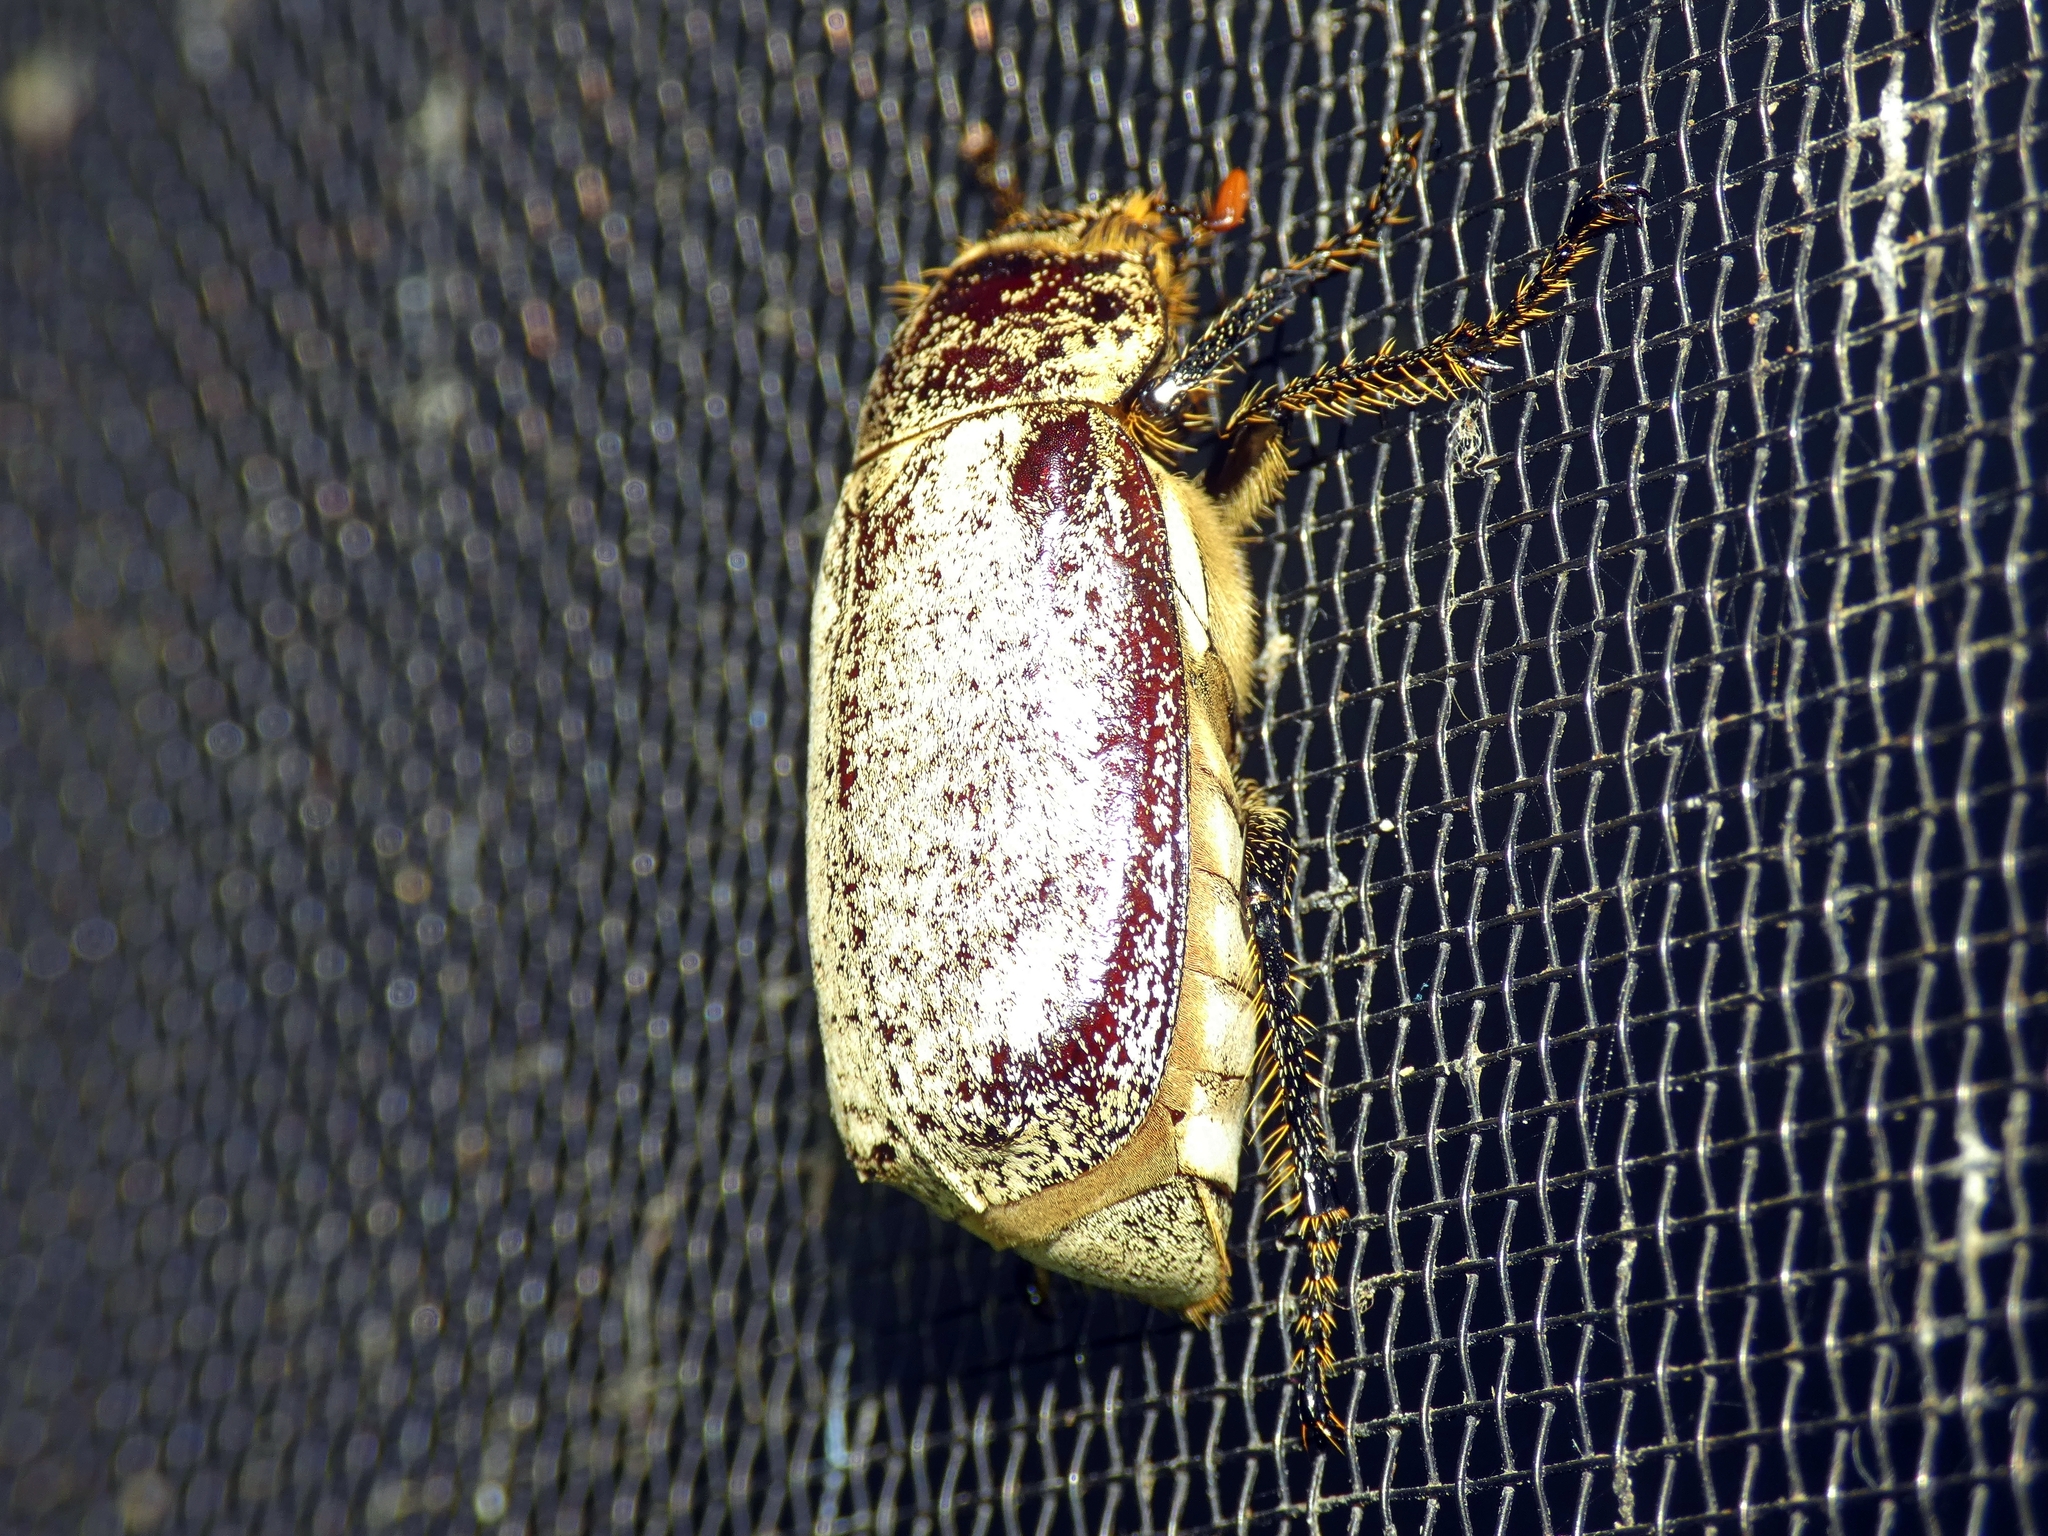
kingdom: Animalia
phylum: Arthropoda
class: Insecta
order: Coleoptera
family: Scarabaeidae
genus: Dermolepida
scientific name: Dermolepida albohirtum
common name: Greyback cane beetle
